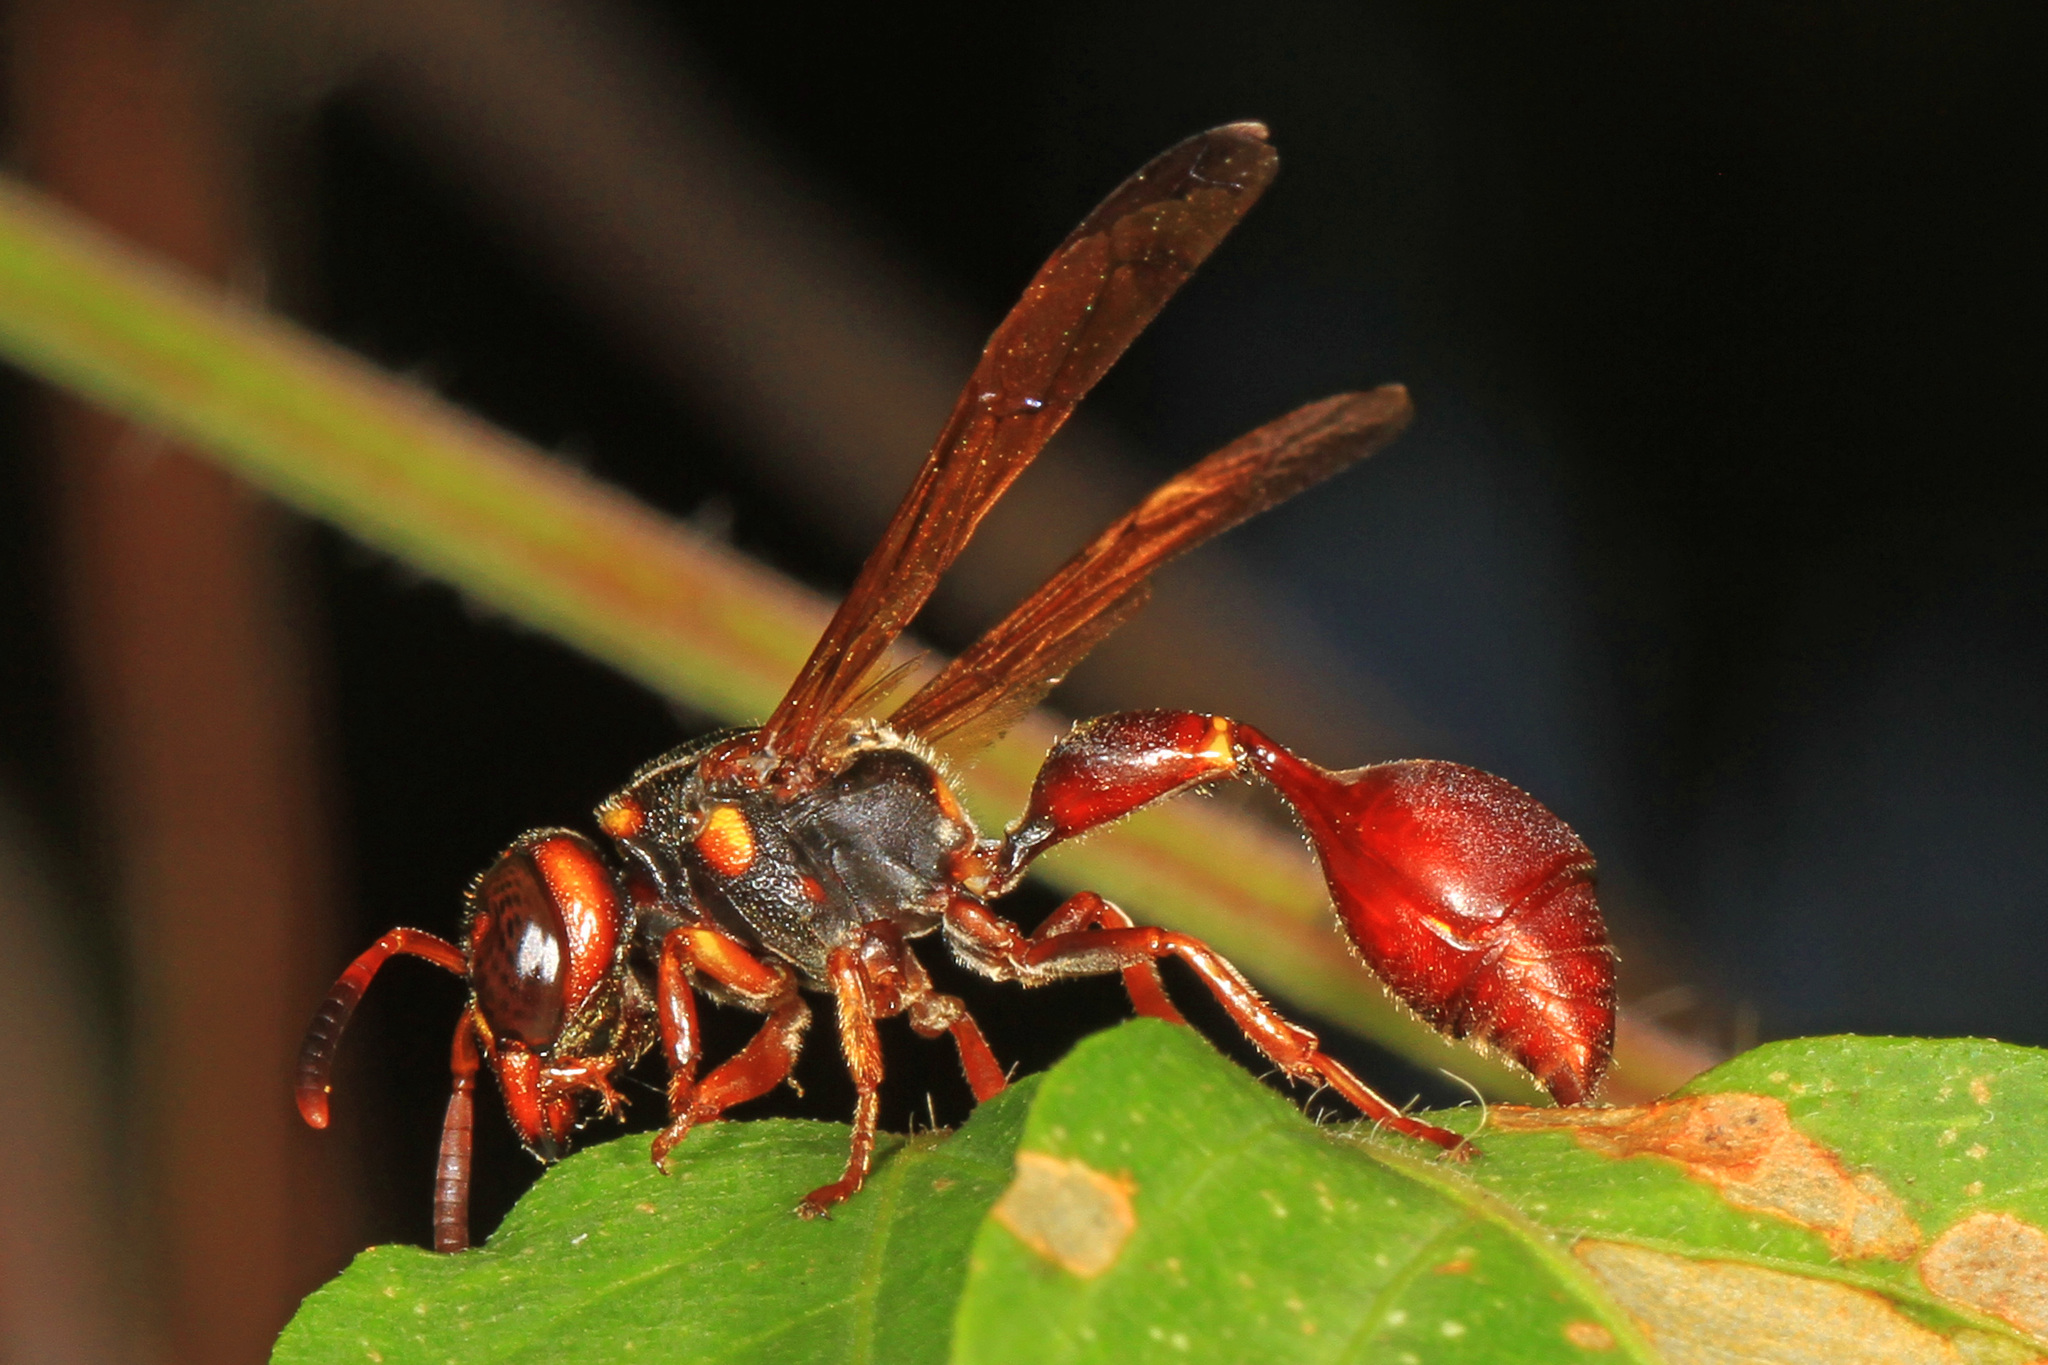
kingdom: Animalia
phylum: Arthropoda
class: Insecta
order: Hymenoptera
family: Eumenidae
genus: Zethus
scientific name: Zethus slossonae
